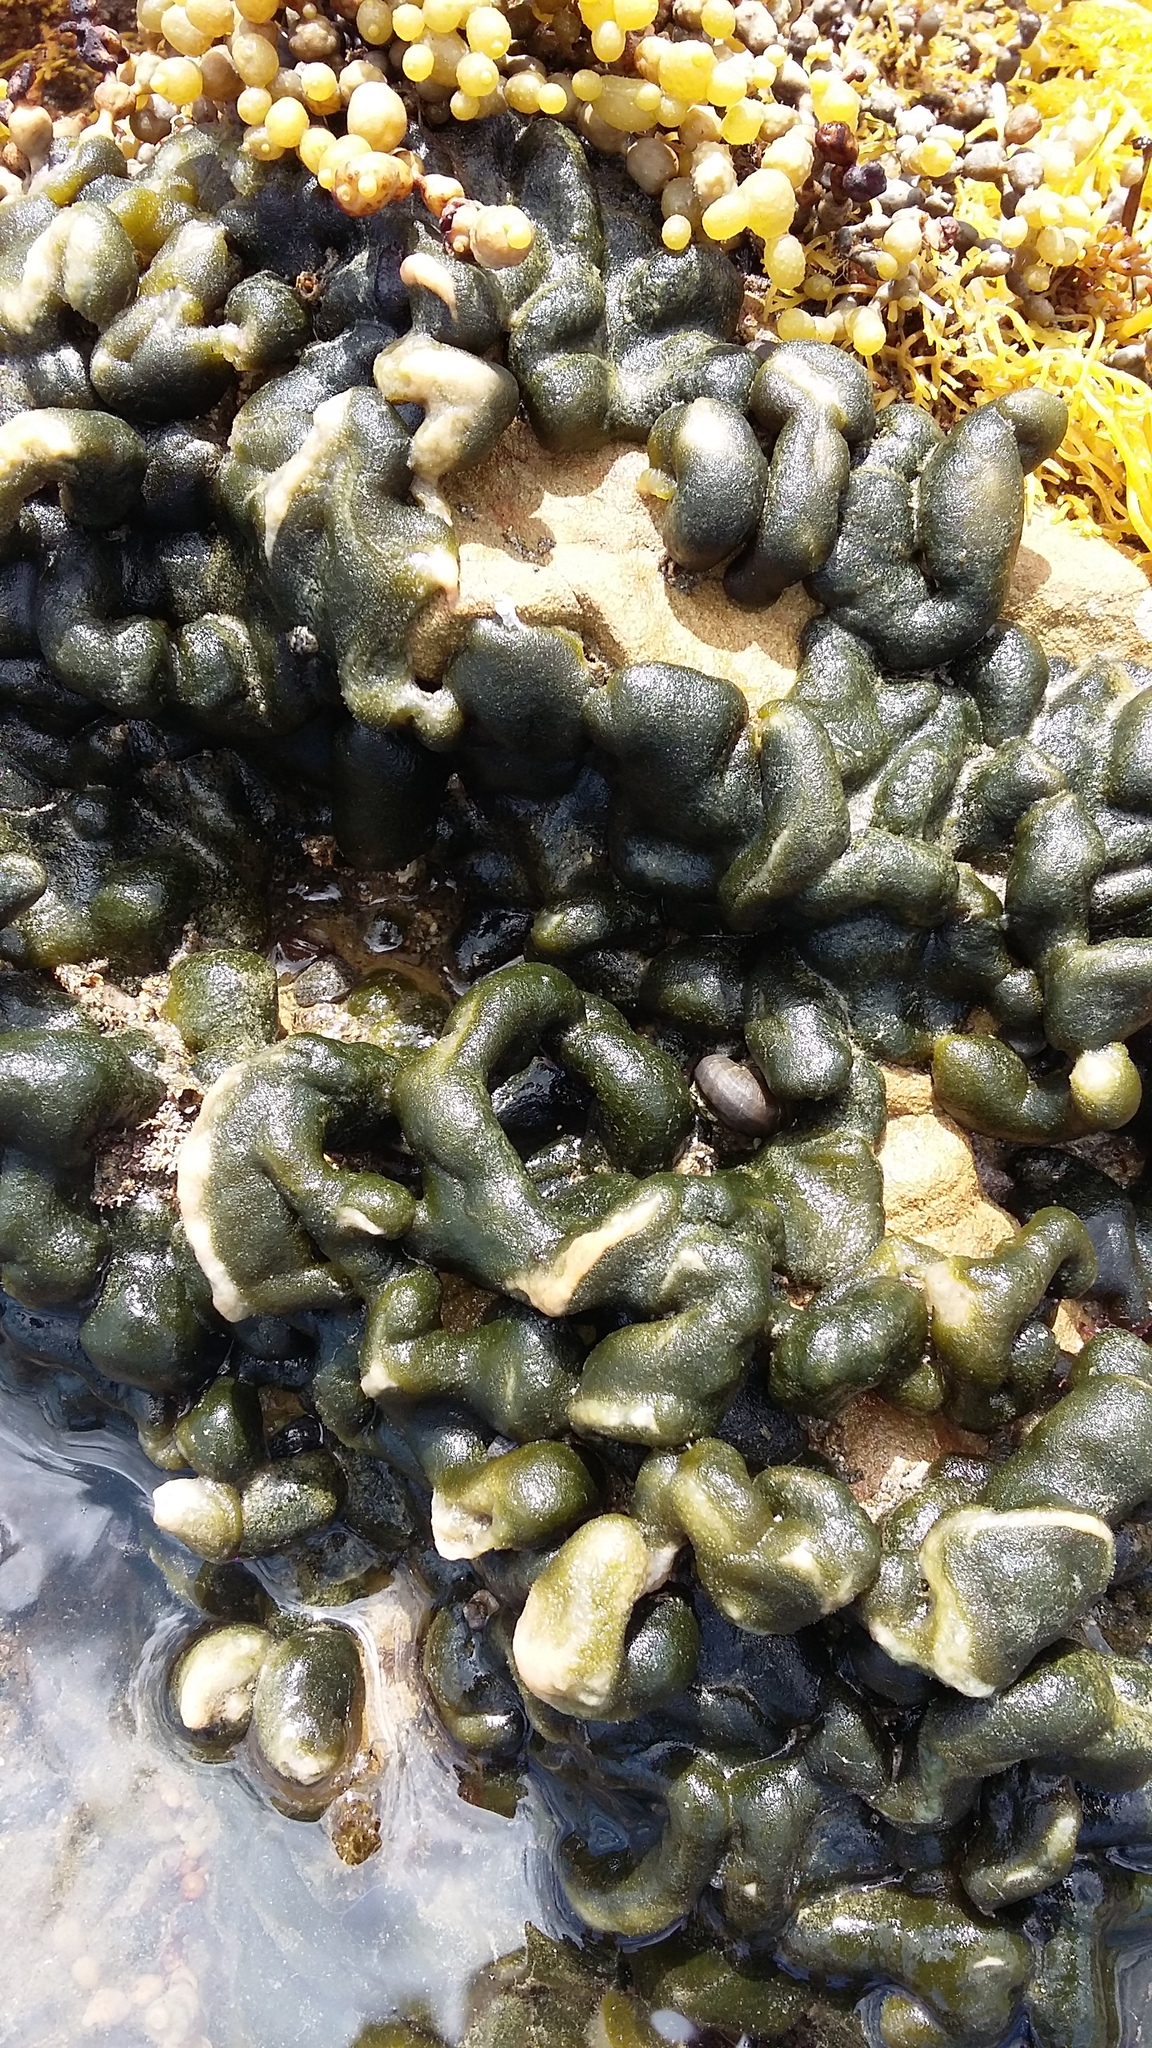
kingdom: Plantae
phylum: Chlorophyta
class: Ulvophyceae
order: Bryopsidales
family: Codiaceae
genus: Codium
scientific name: Codium convolutum
